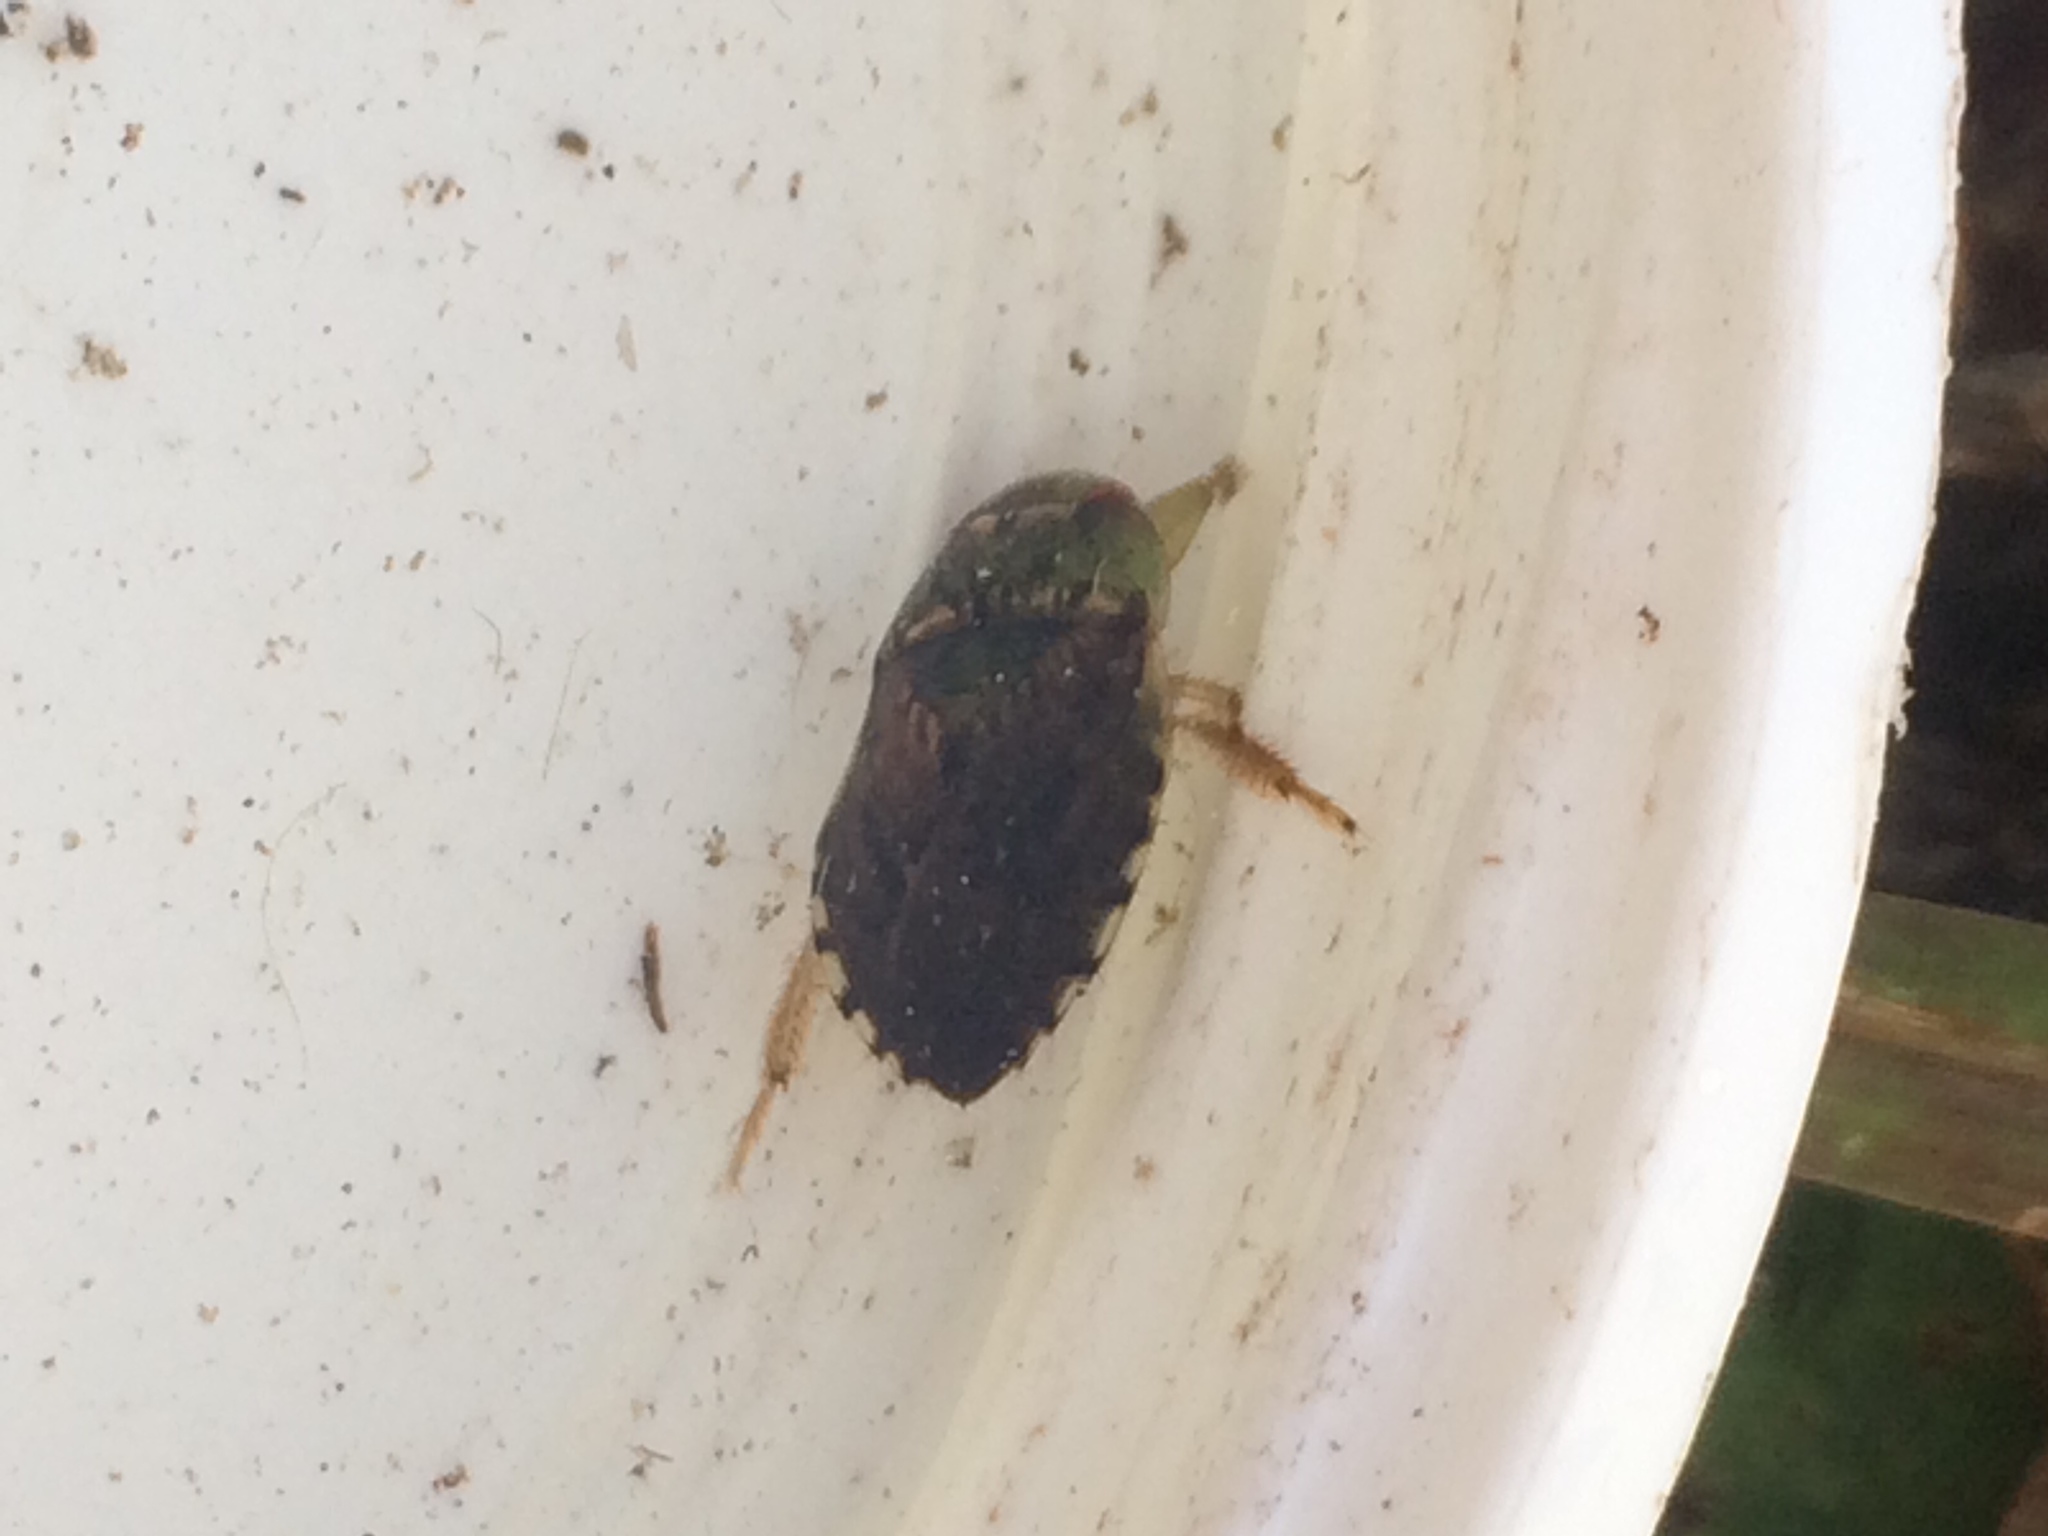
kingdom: Animalia
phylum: Arthropoda
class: Insecta
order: Hemiptera
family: Naucoridae
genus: Pelocoris
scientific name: Pelocoris
